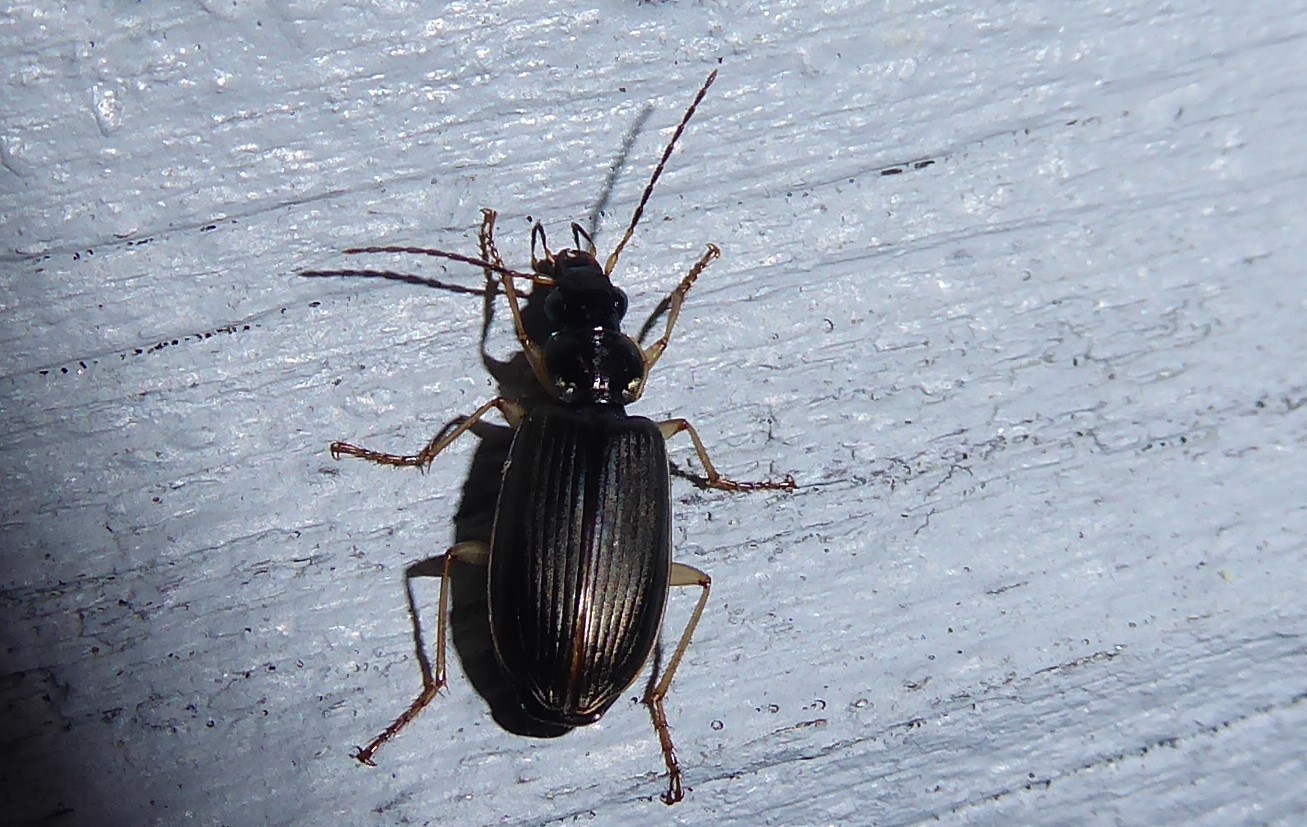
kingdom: Animalia
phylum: Arthropoda
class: Insecta
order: Coleoptera
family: Carabidae
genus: Notagonum
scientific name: Notagonum submetallicum
